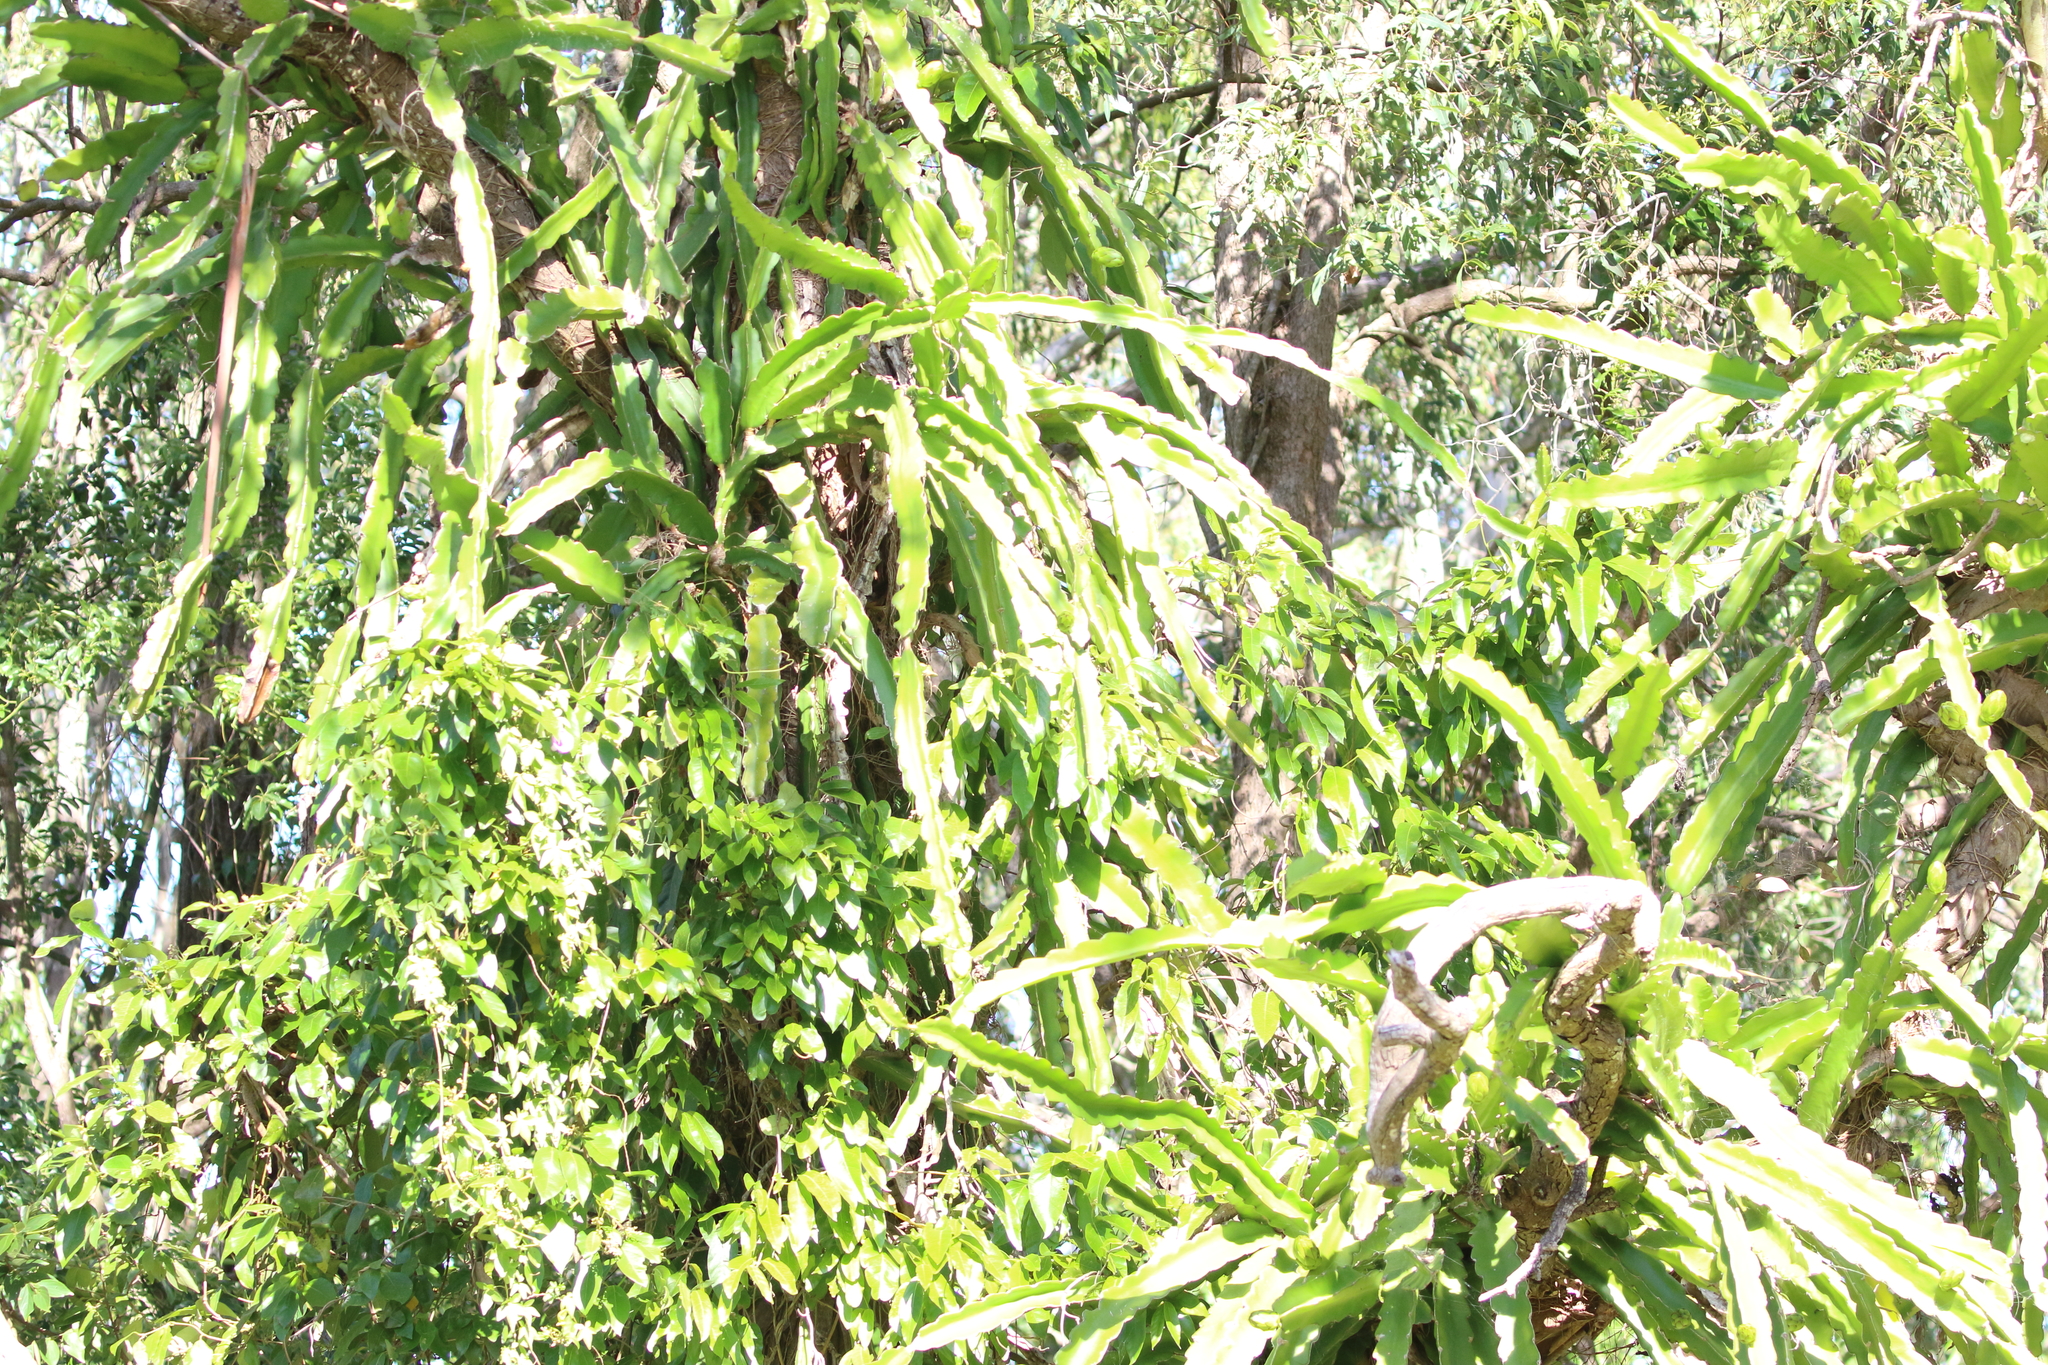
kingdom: Plantae
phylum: Tracheophyta
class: Magnoliopsida
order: Caryophyllales
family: Cactaceae
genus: Selenicereus
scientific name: Selenicereus undatus
